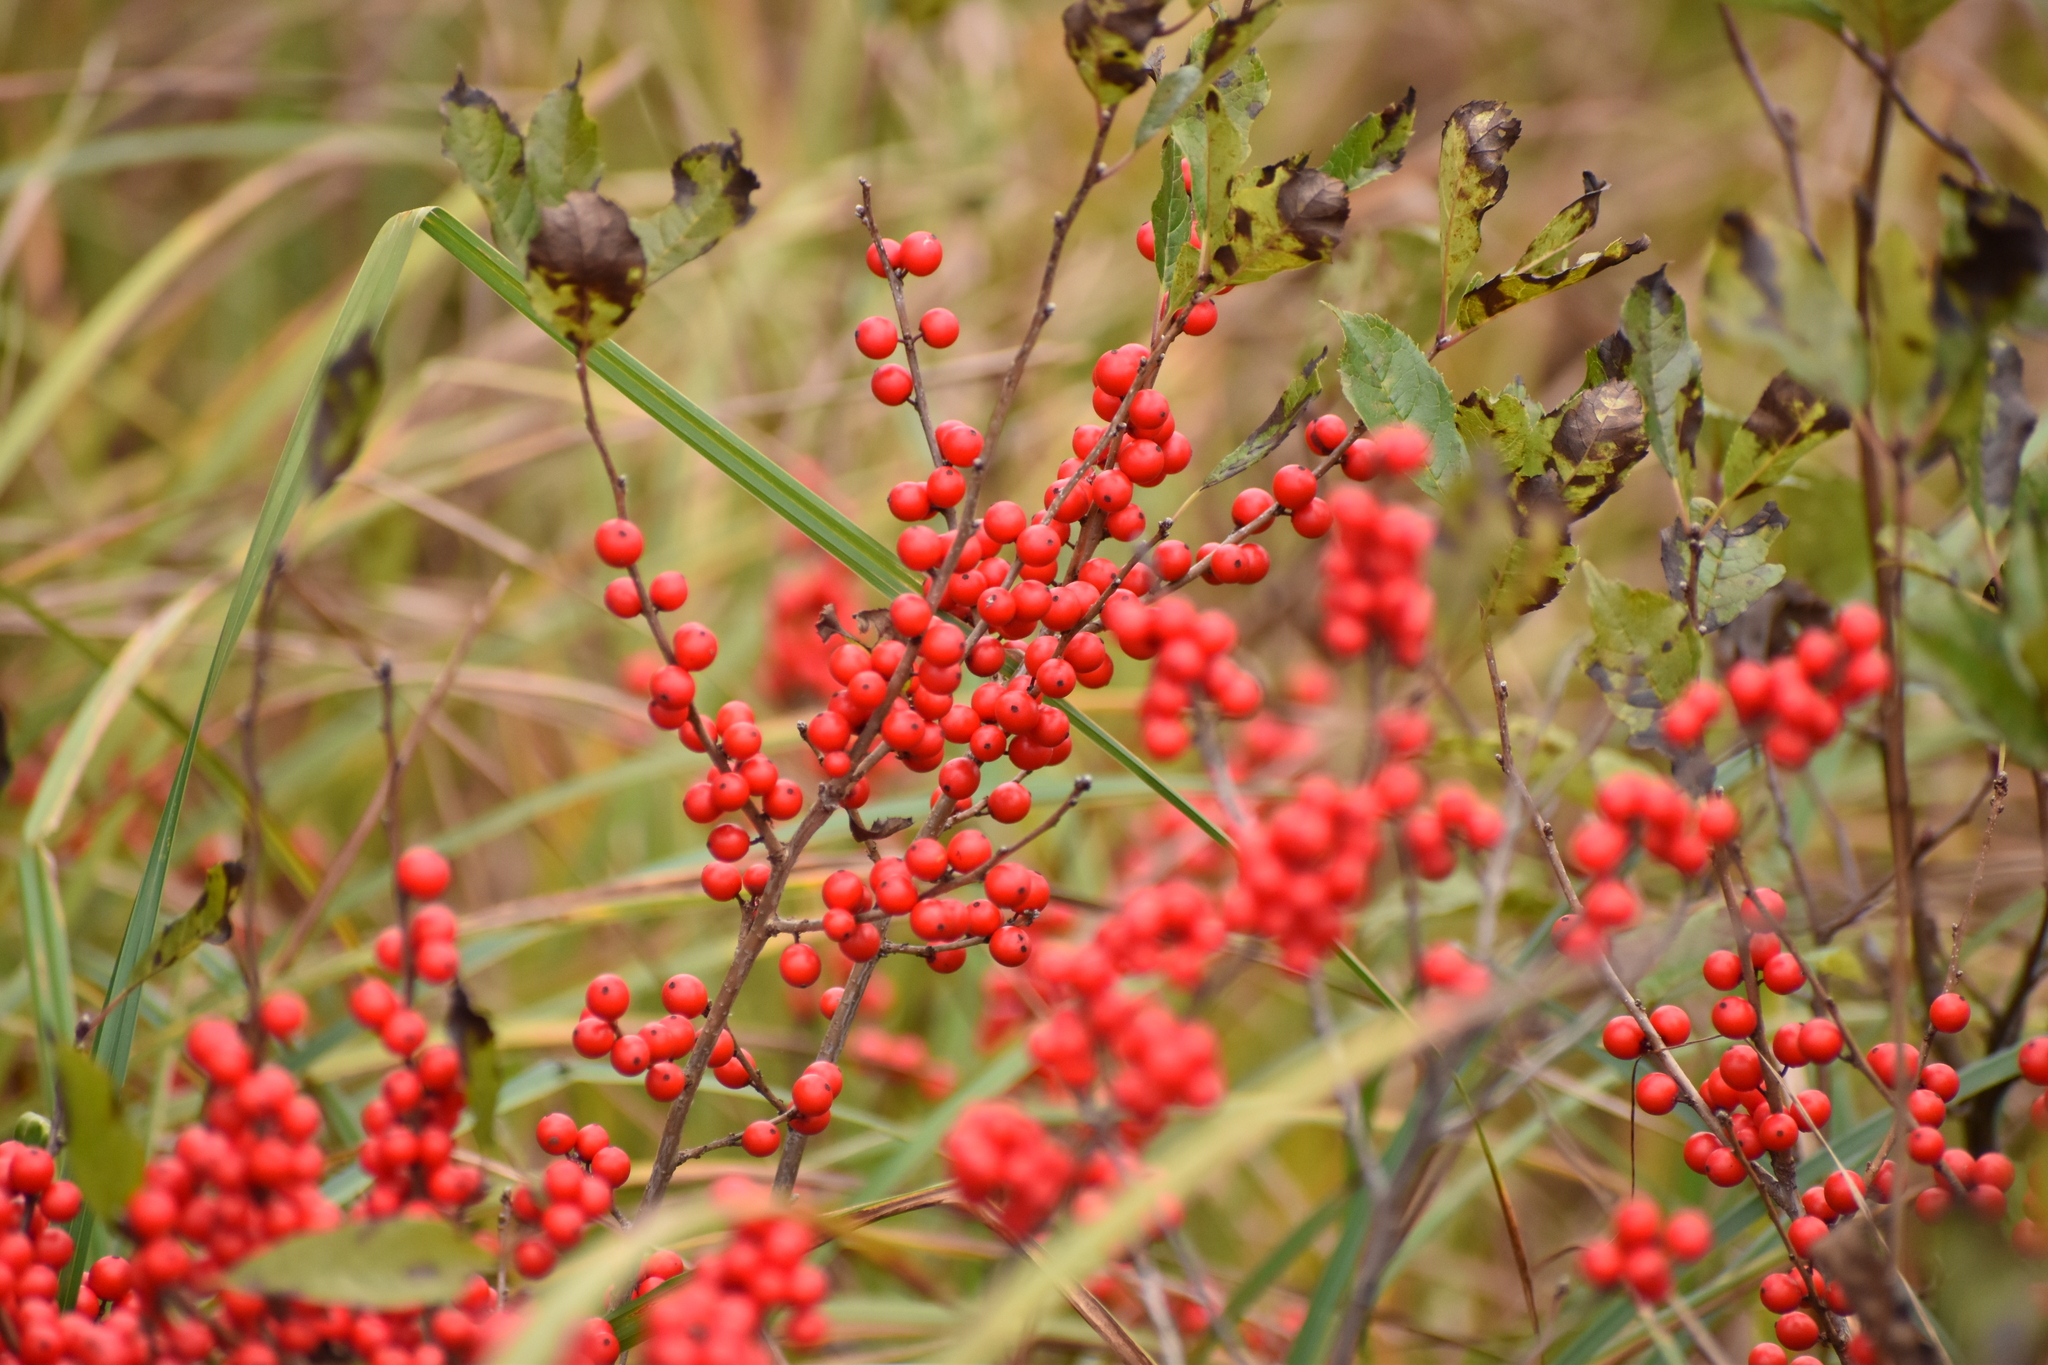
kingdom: Plantae
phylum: Tracheophyta
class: Magnoliopsida
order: Aquifoliales
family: Aquifoliaceae
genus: Ilex
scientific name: Ilex verticillata
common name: Virginia winterberry
